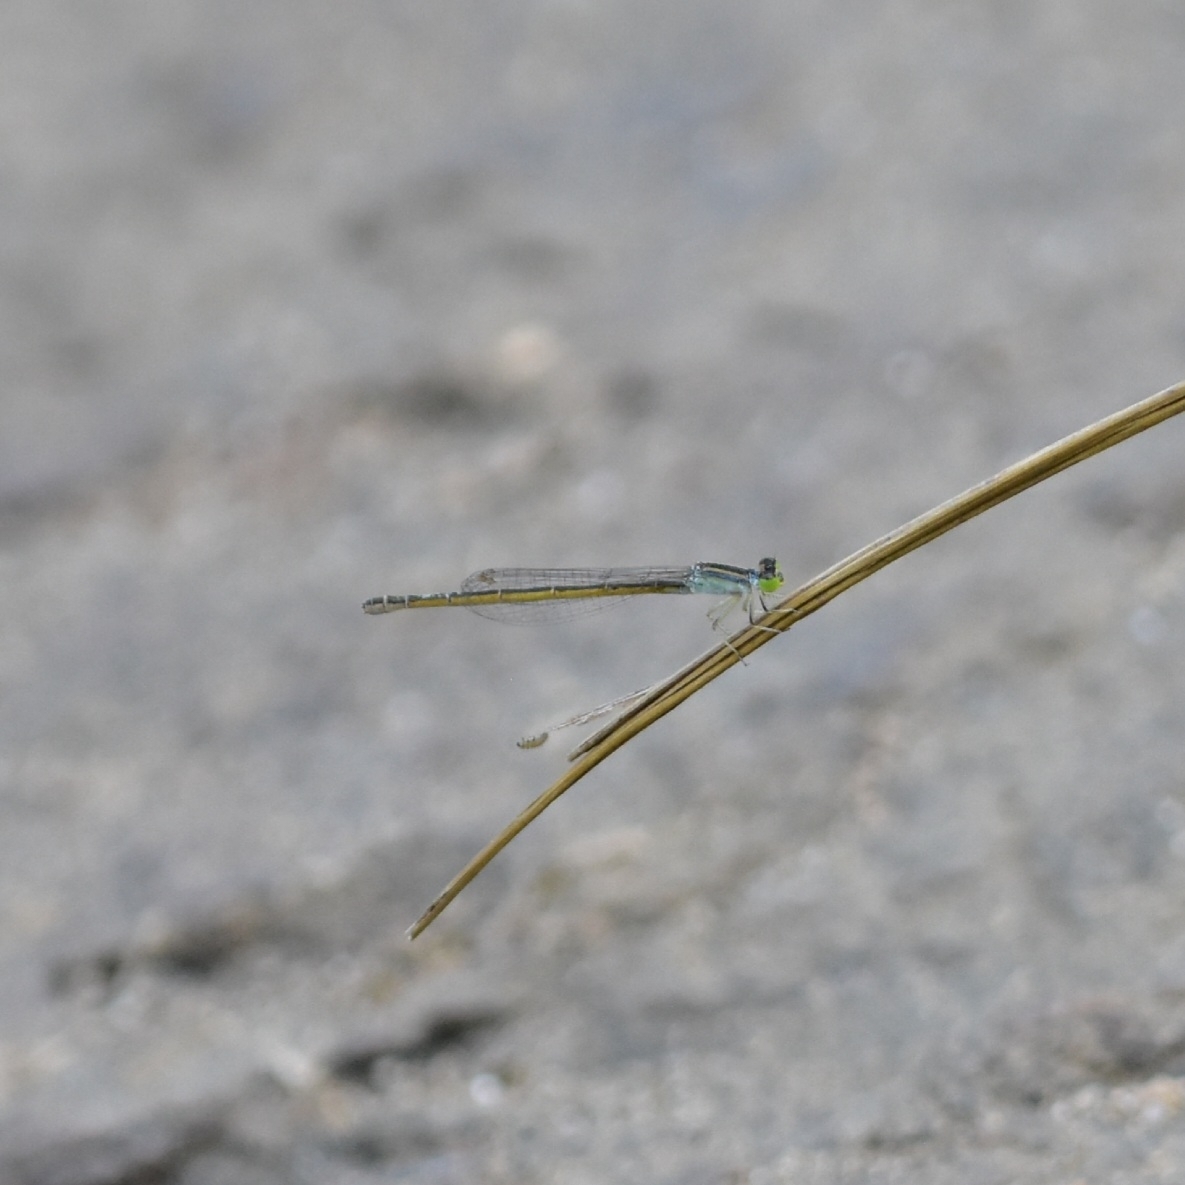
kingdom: Animalia
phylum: Arthropoda
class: Insecta
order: Odonata
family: Coenagrionidae
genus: Ischnura
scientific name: Ischnura rubilio
